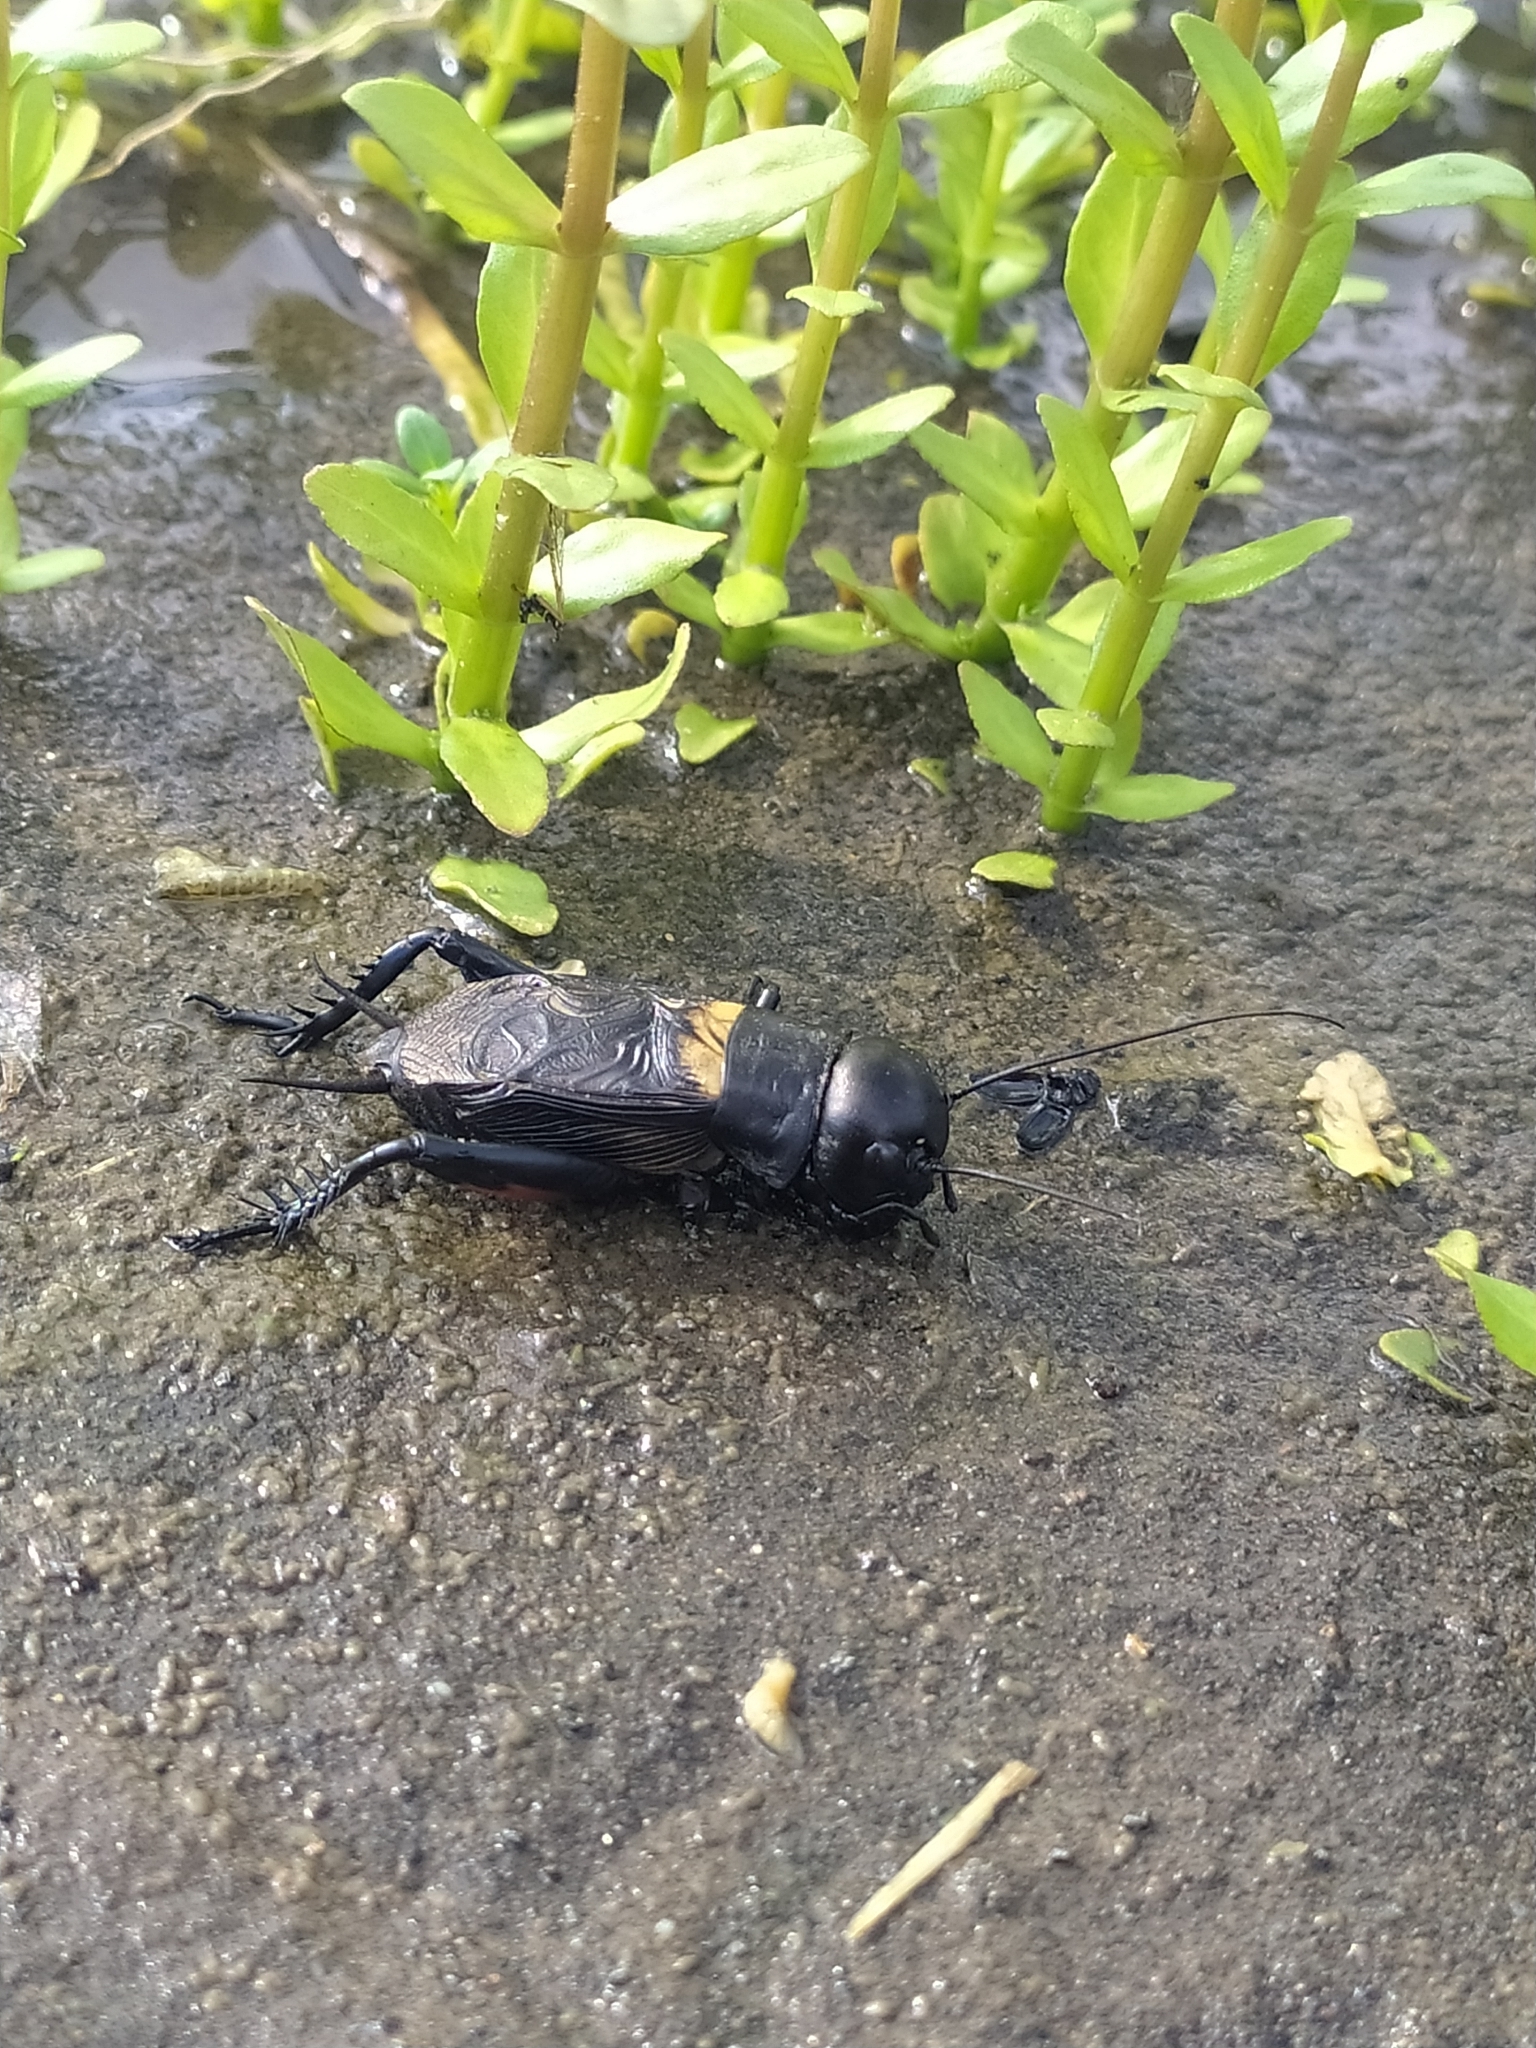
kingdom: Animalia
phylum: Arthropoda
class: Insecta
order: Orthoptera
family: Gryllidae
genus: Gryllus
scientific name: Gryllus campestris
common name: Field cricket
